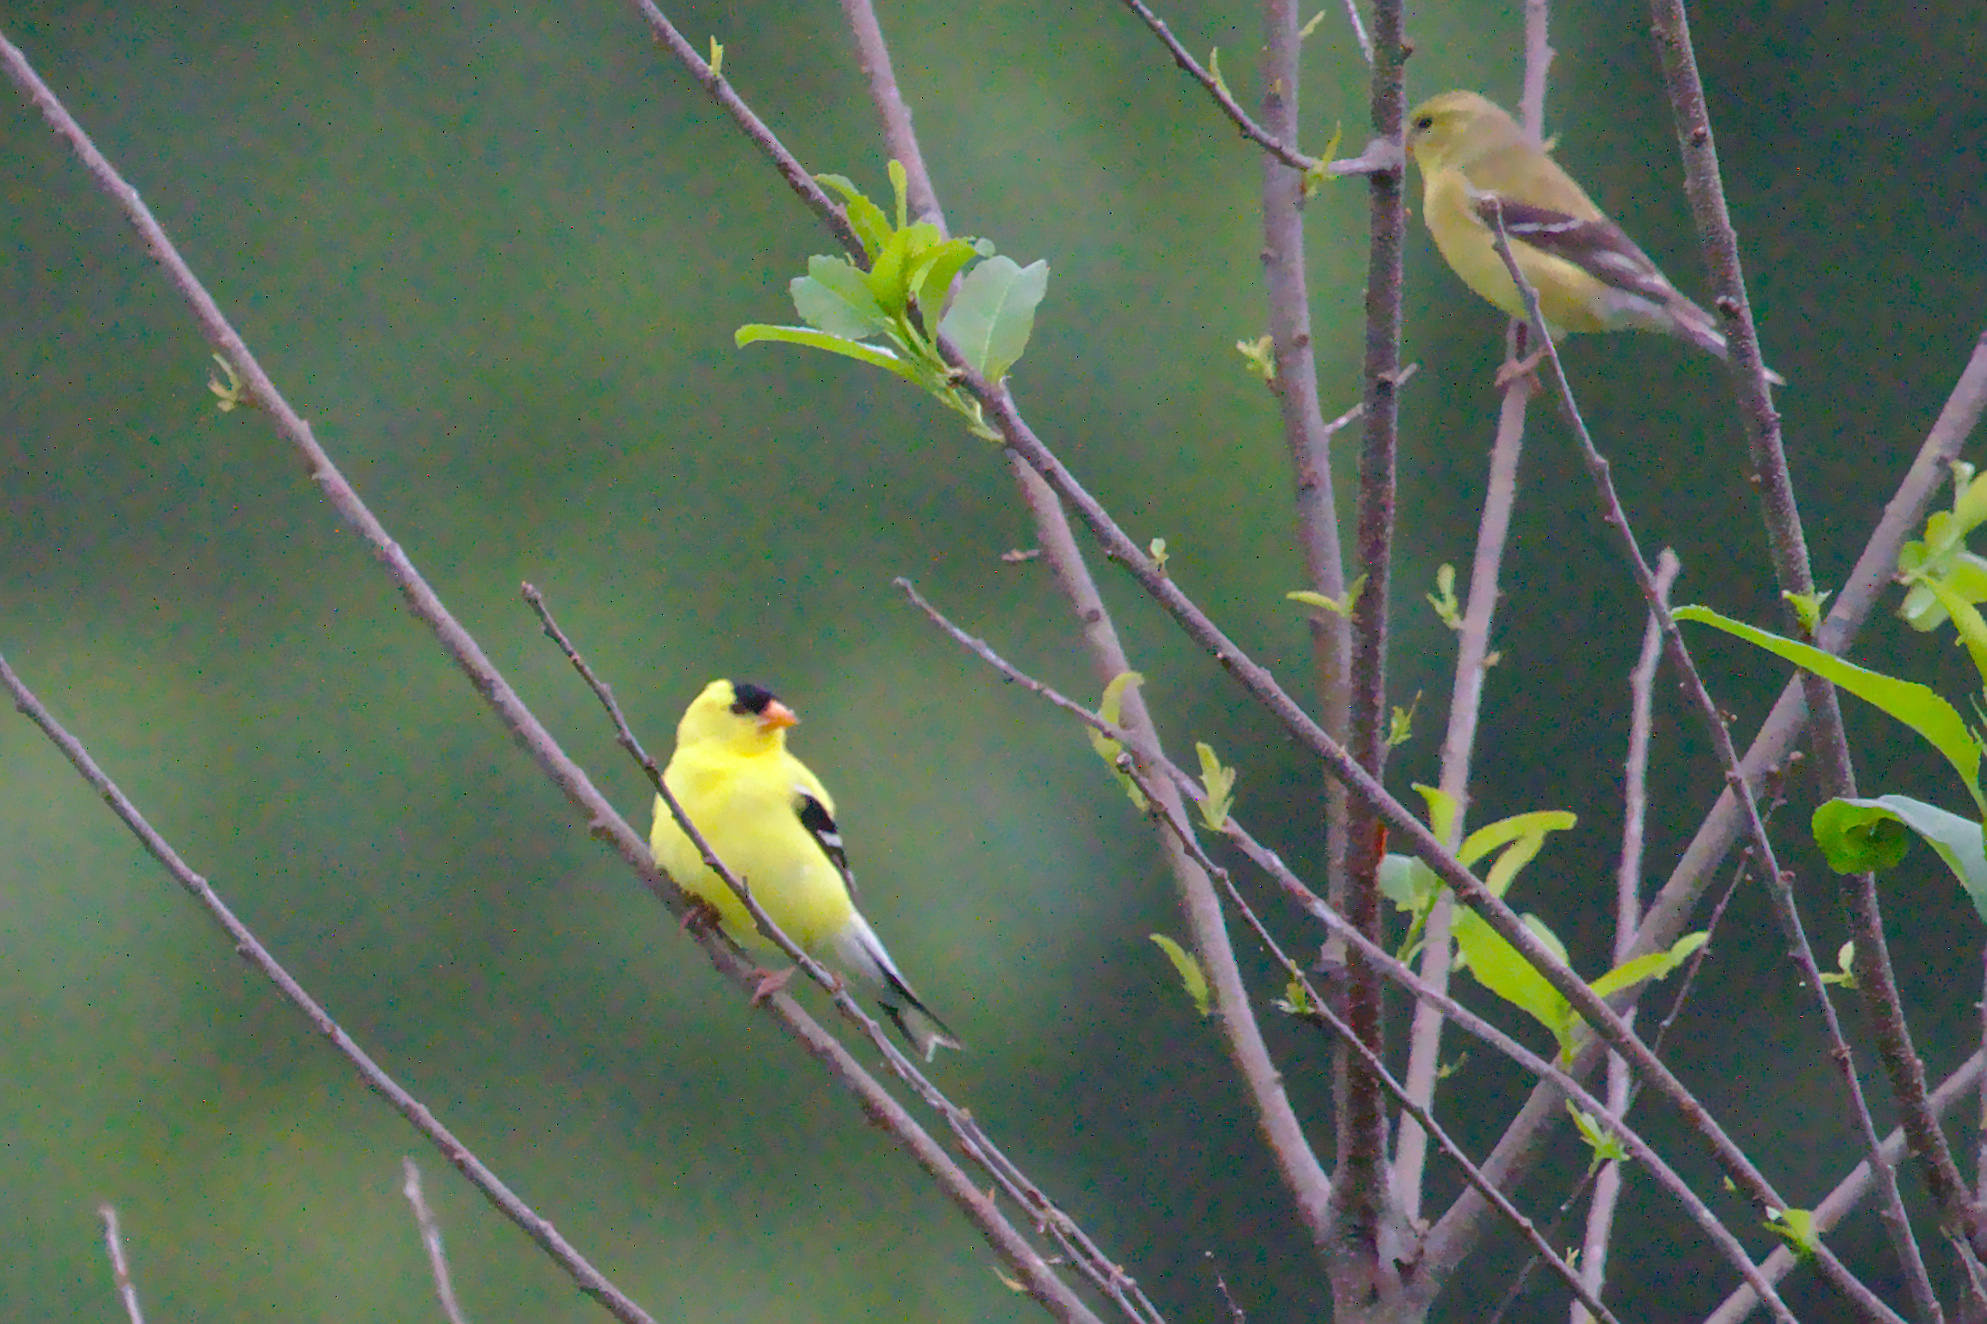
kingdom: Animalia
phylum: Chordata
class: Aves
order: Passeriformes
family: Fringillidae
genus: Spinus
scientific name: Spinus tristis
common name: American goldfinch
